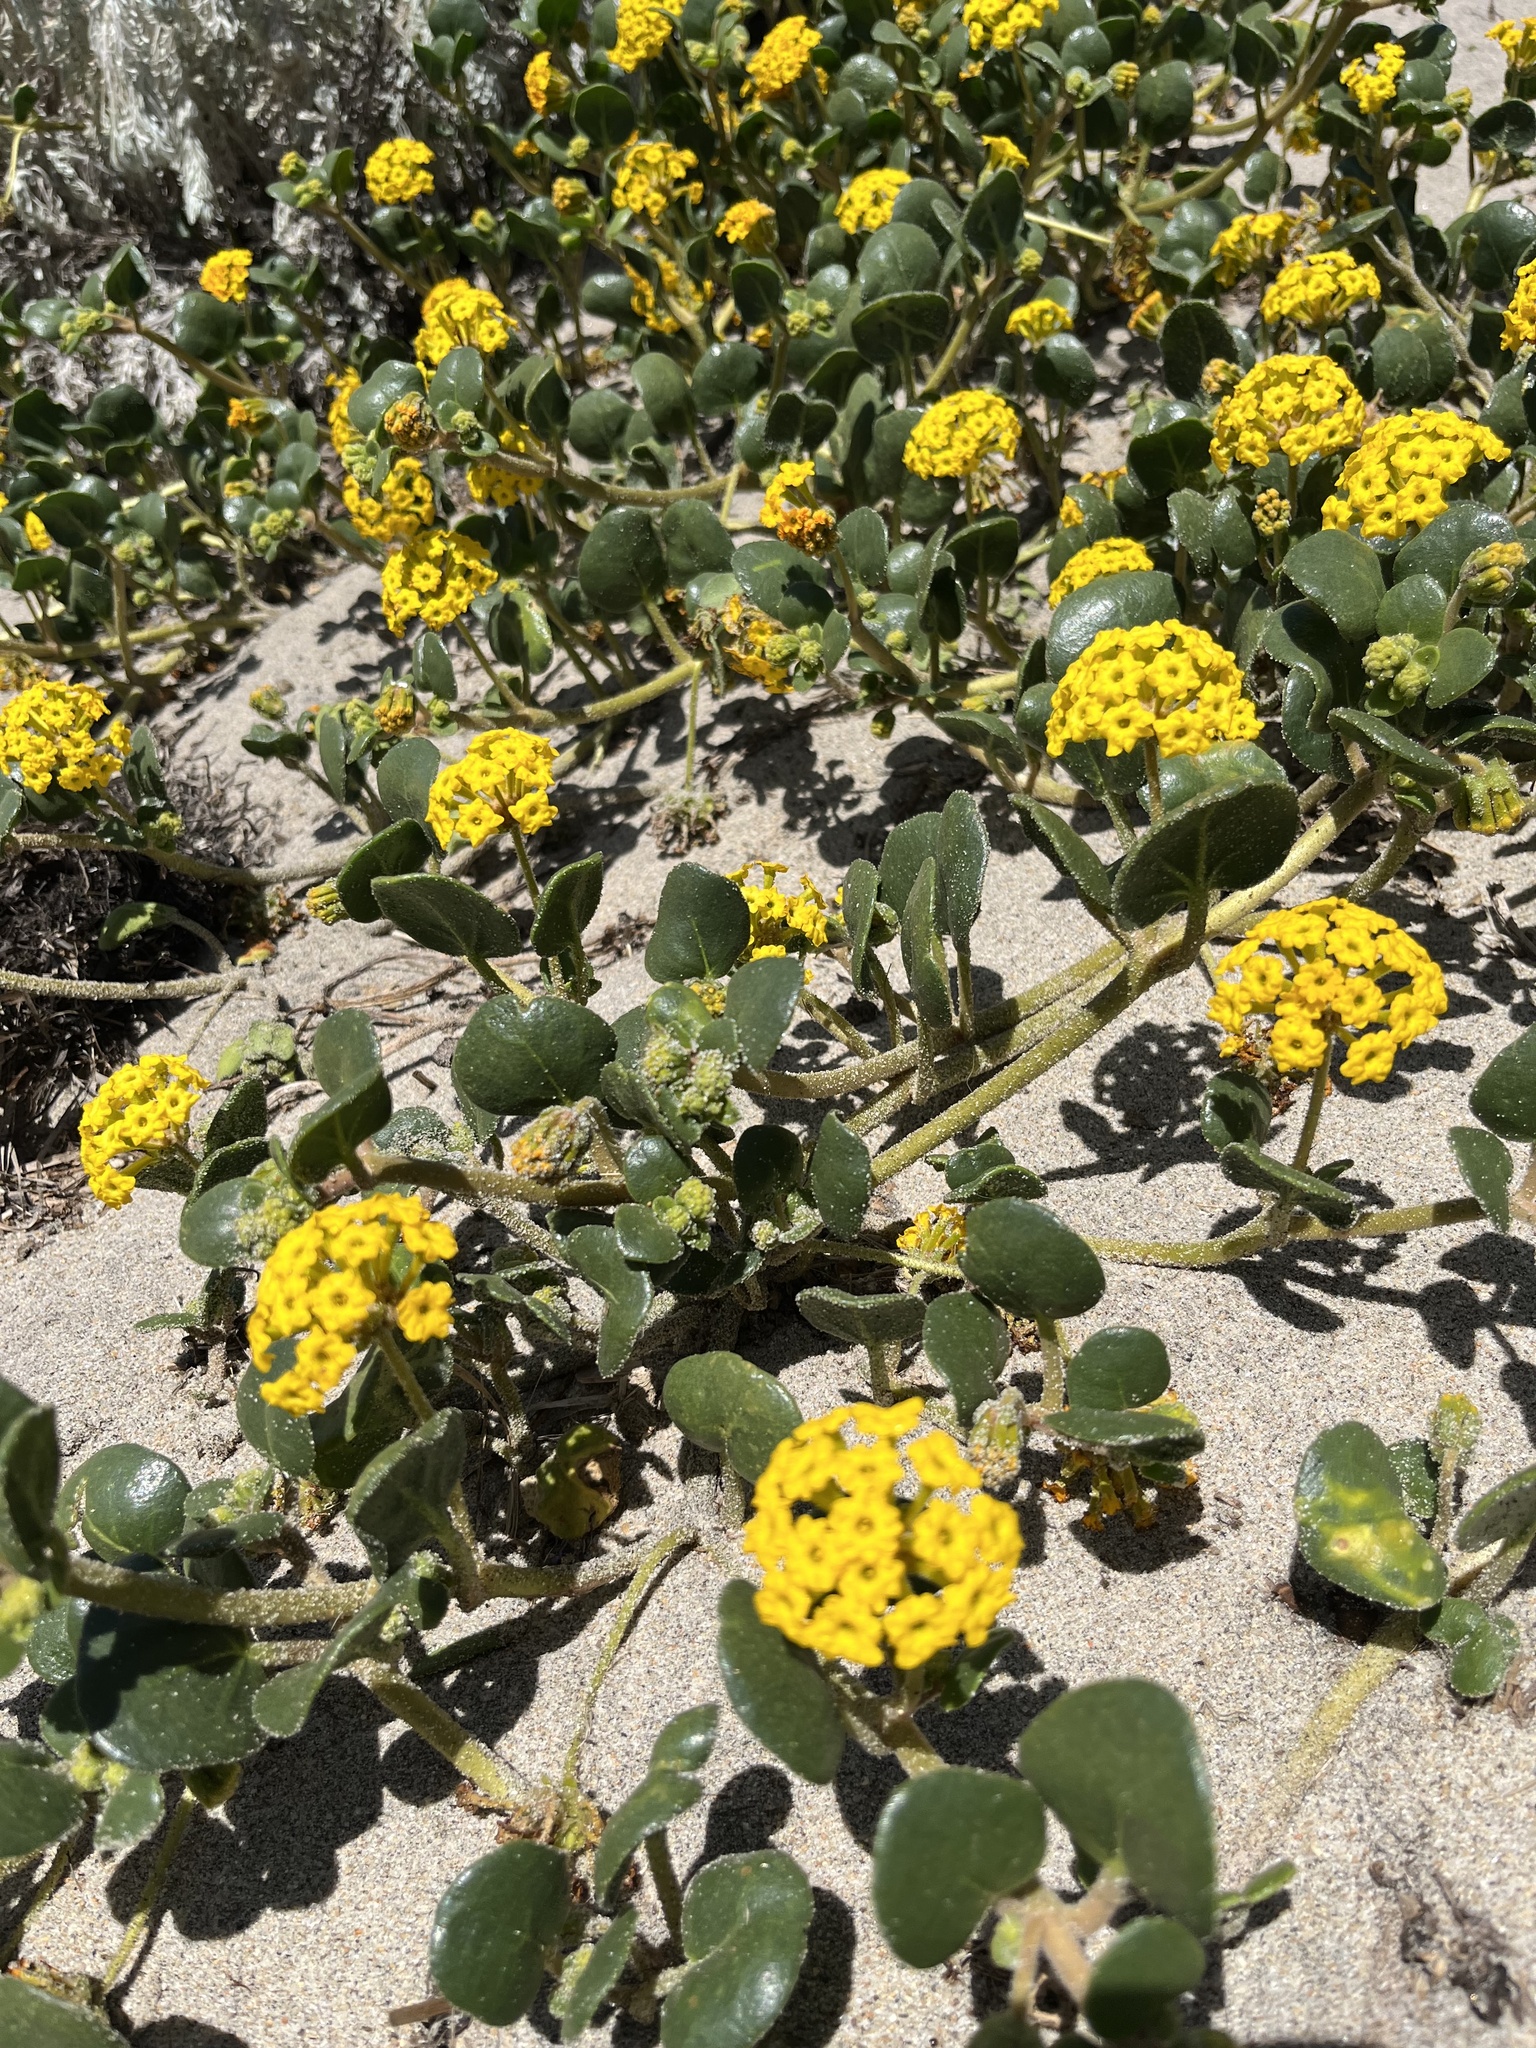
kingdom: Plantae
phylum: Tracheophyta
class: Magnoliopsida
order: Caryophyllales
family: Nyctaginaceae
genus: Abronia
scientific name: Abronia latifolia
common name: Yellow sand-verbena
